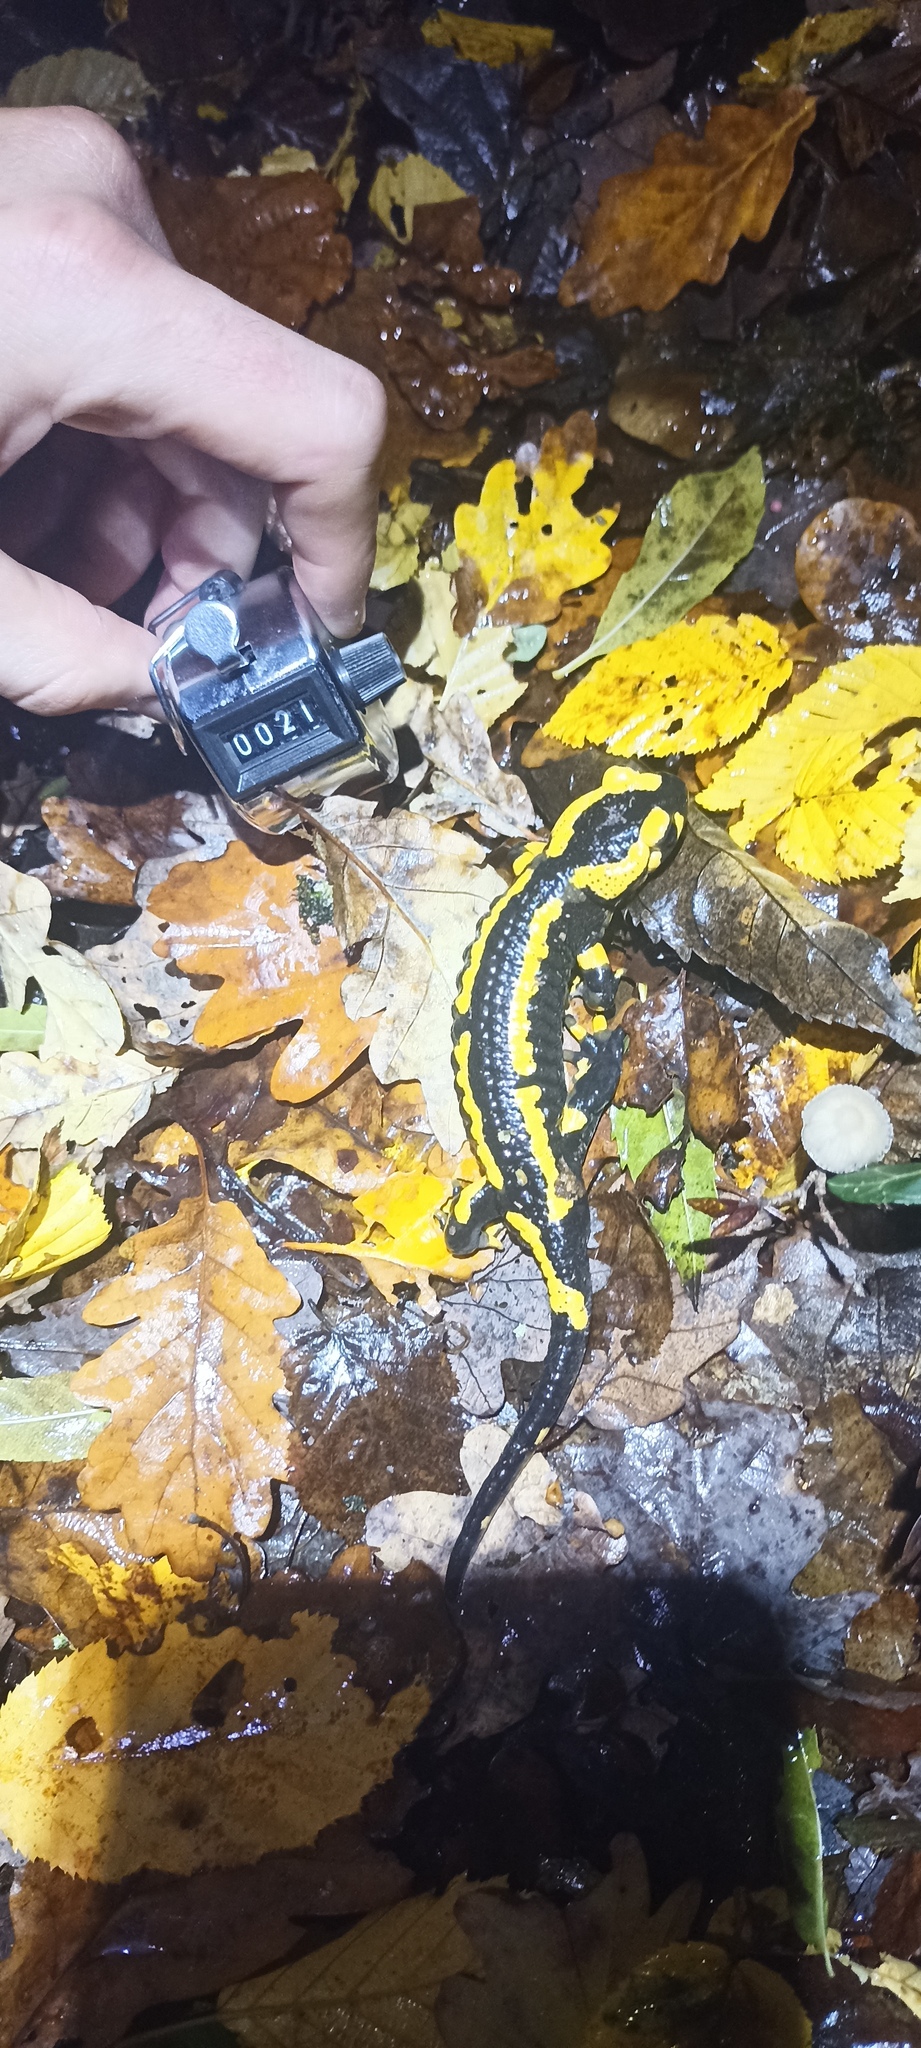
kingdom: Animalia
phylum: Chordata
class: Amphibia
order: Caudata
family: Salamandridae
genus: Salamandra
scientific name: Salamandra salamandra
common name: Fire salamander
